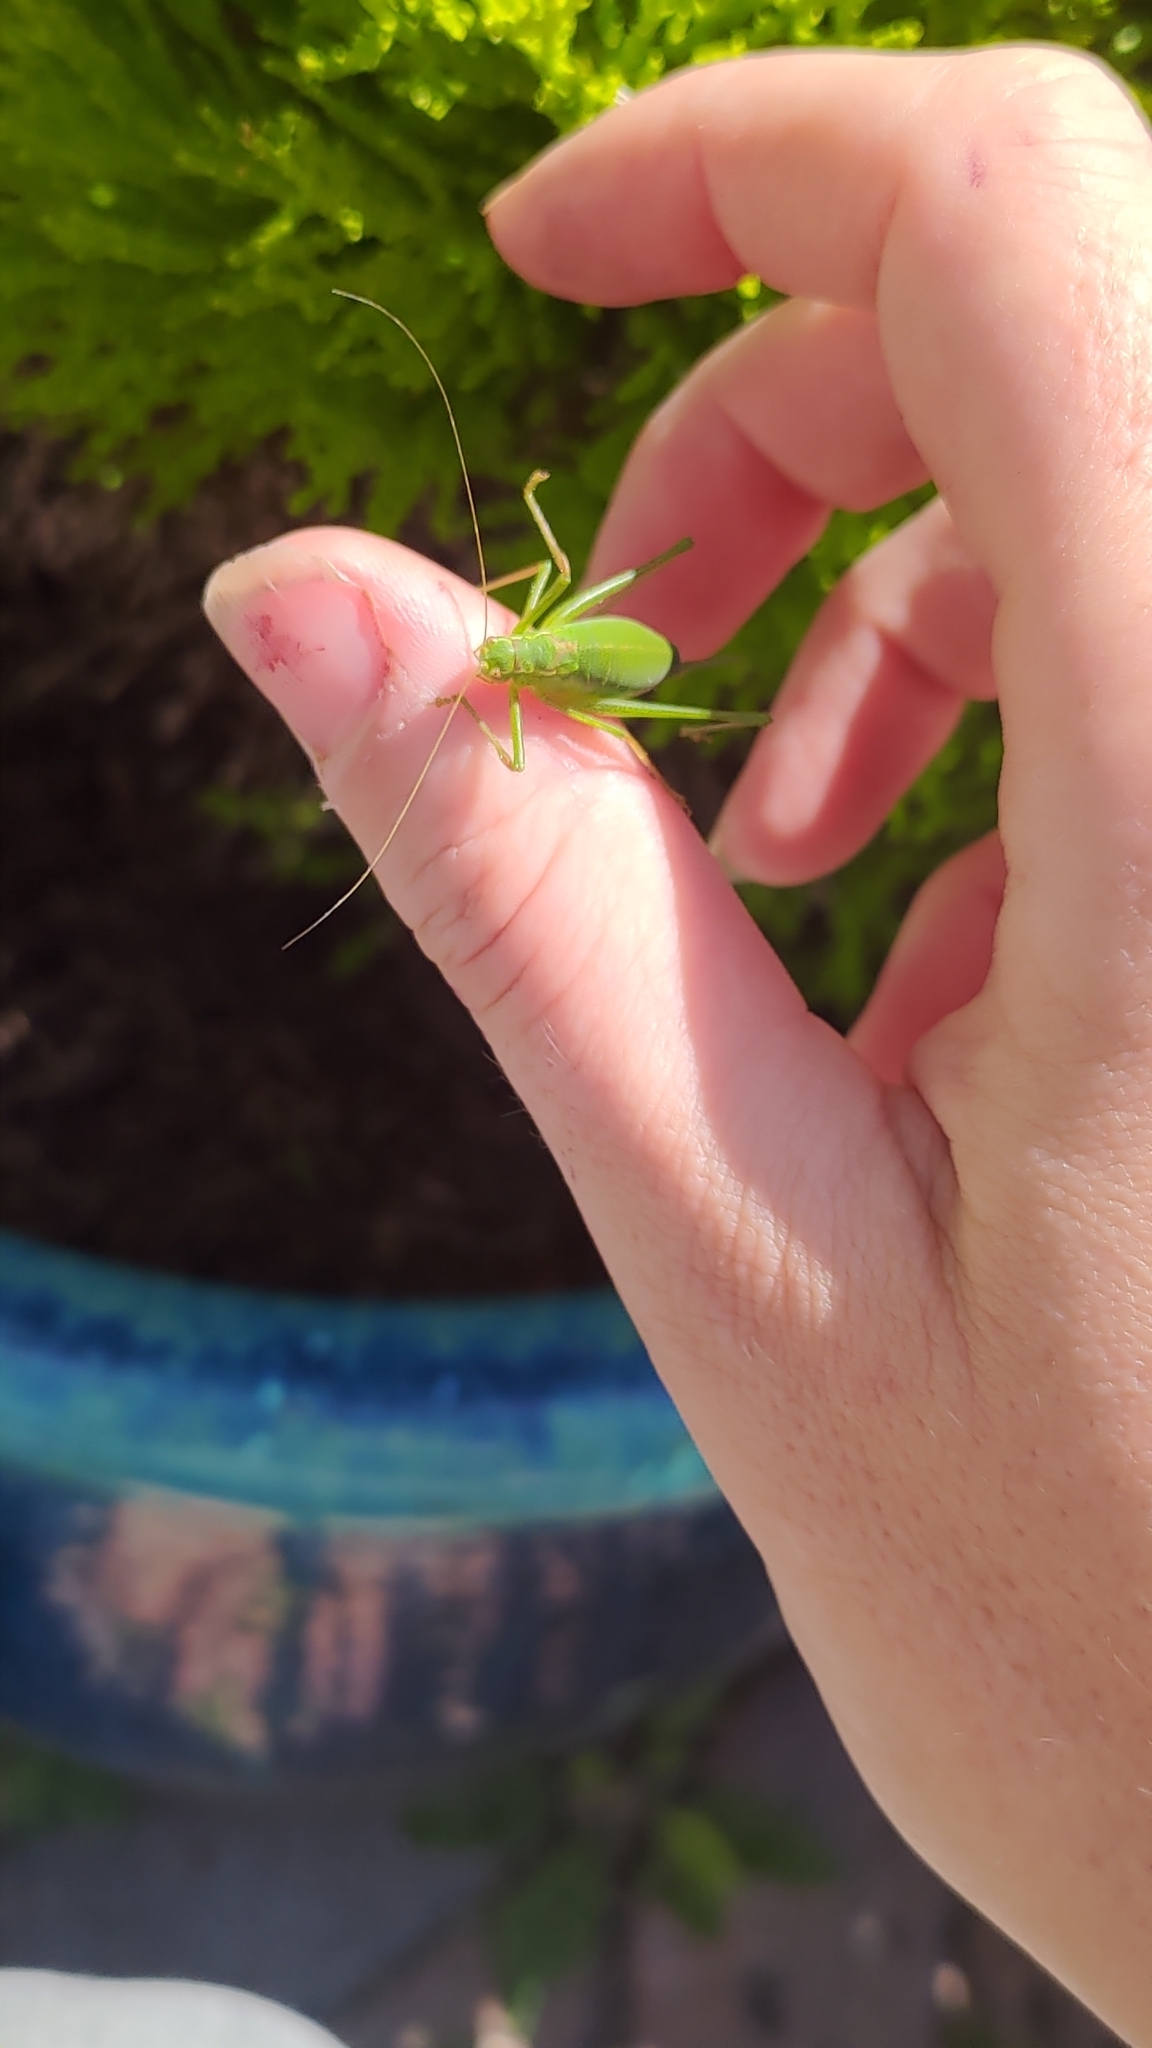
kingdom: Animalia
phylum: Arthropoda
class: Insecta
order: Orthoptera
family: Tettigoniidae
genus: Leptophyes
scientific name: Leptophyes punctatissima
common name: Speckled bush-cricket
